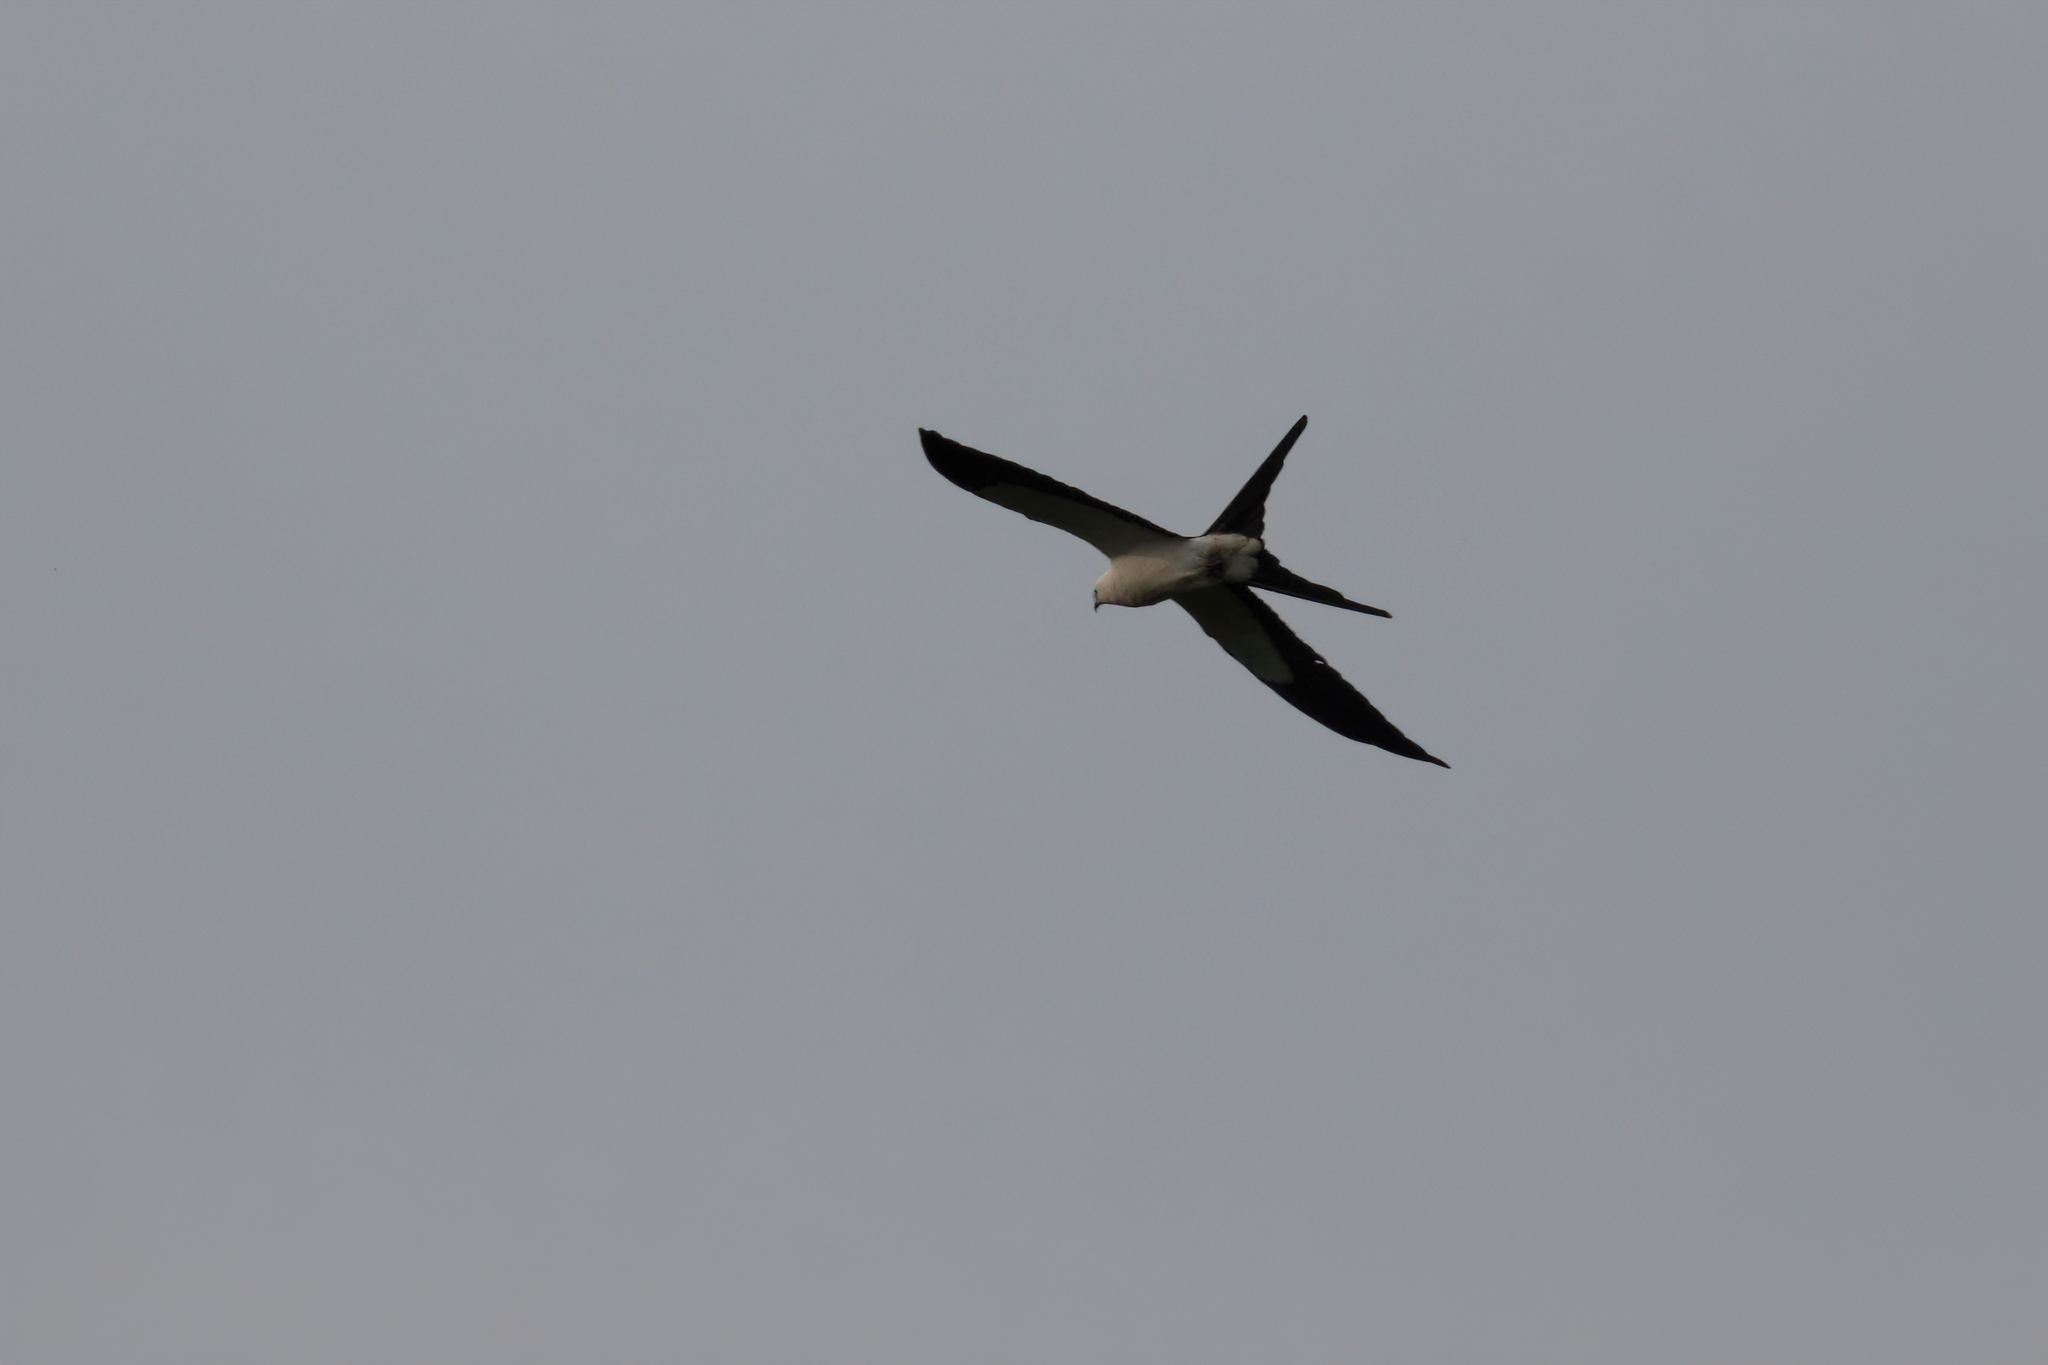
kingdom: Animalia
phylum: Chordata
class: Aves
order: Accipitriformes
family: Accipitridae
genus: Elanoides
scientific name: Elanoides forficatus
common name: Swallow-tailed kite
